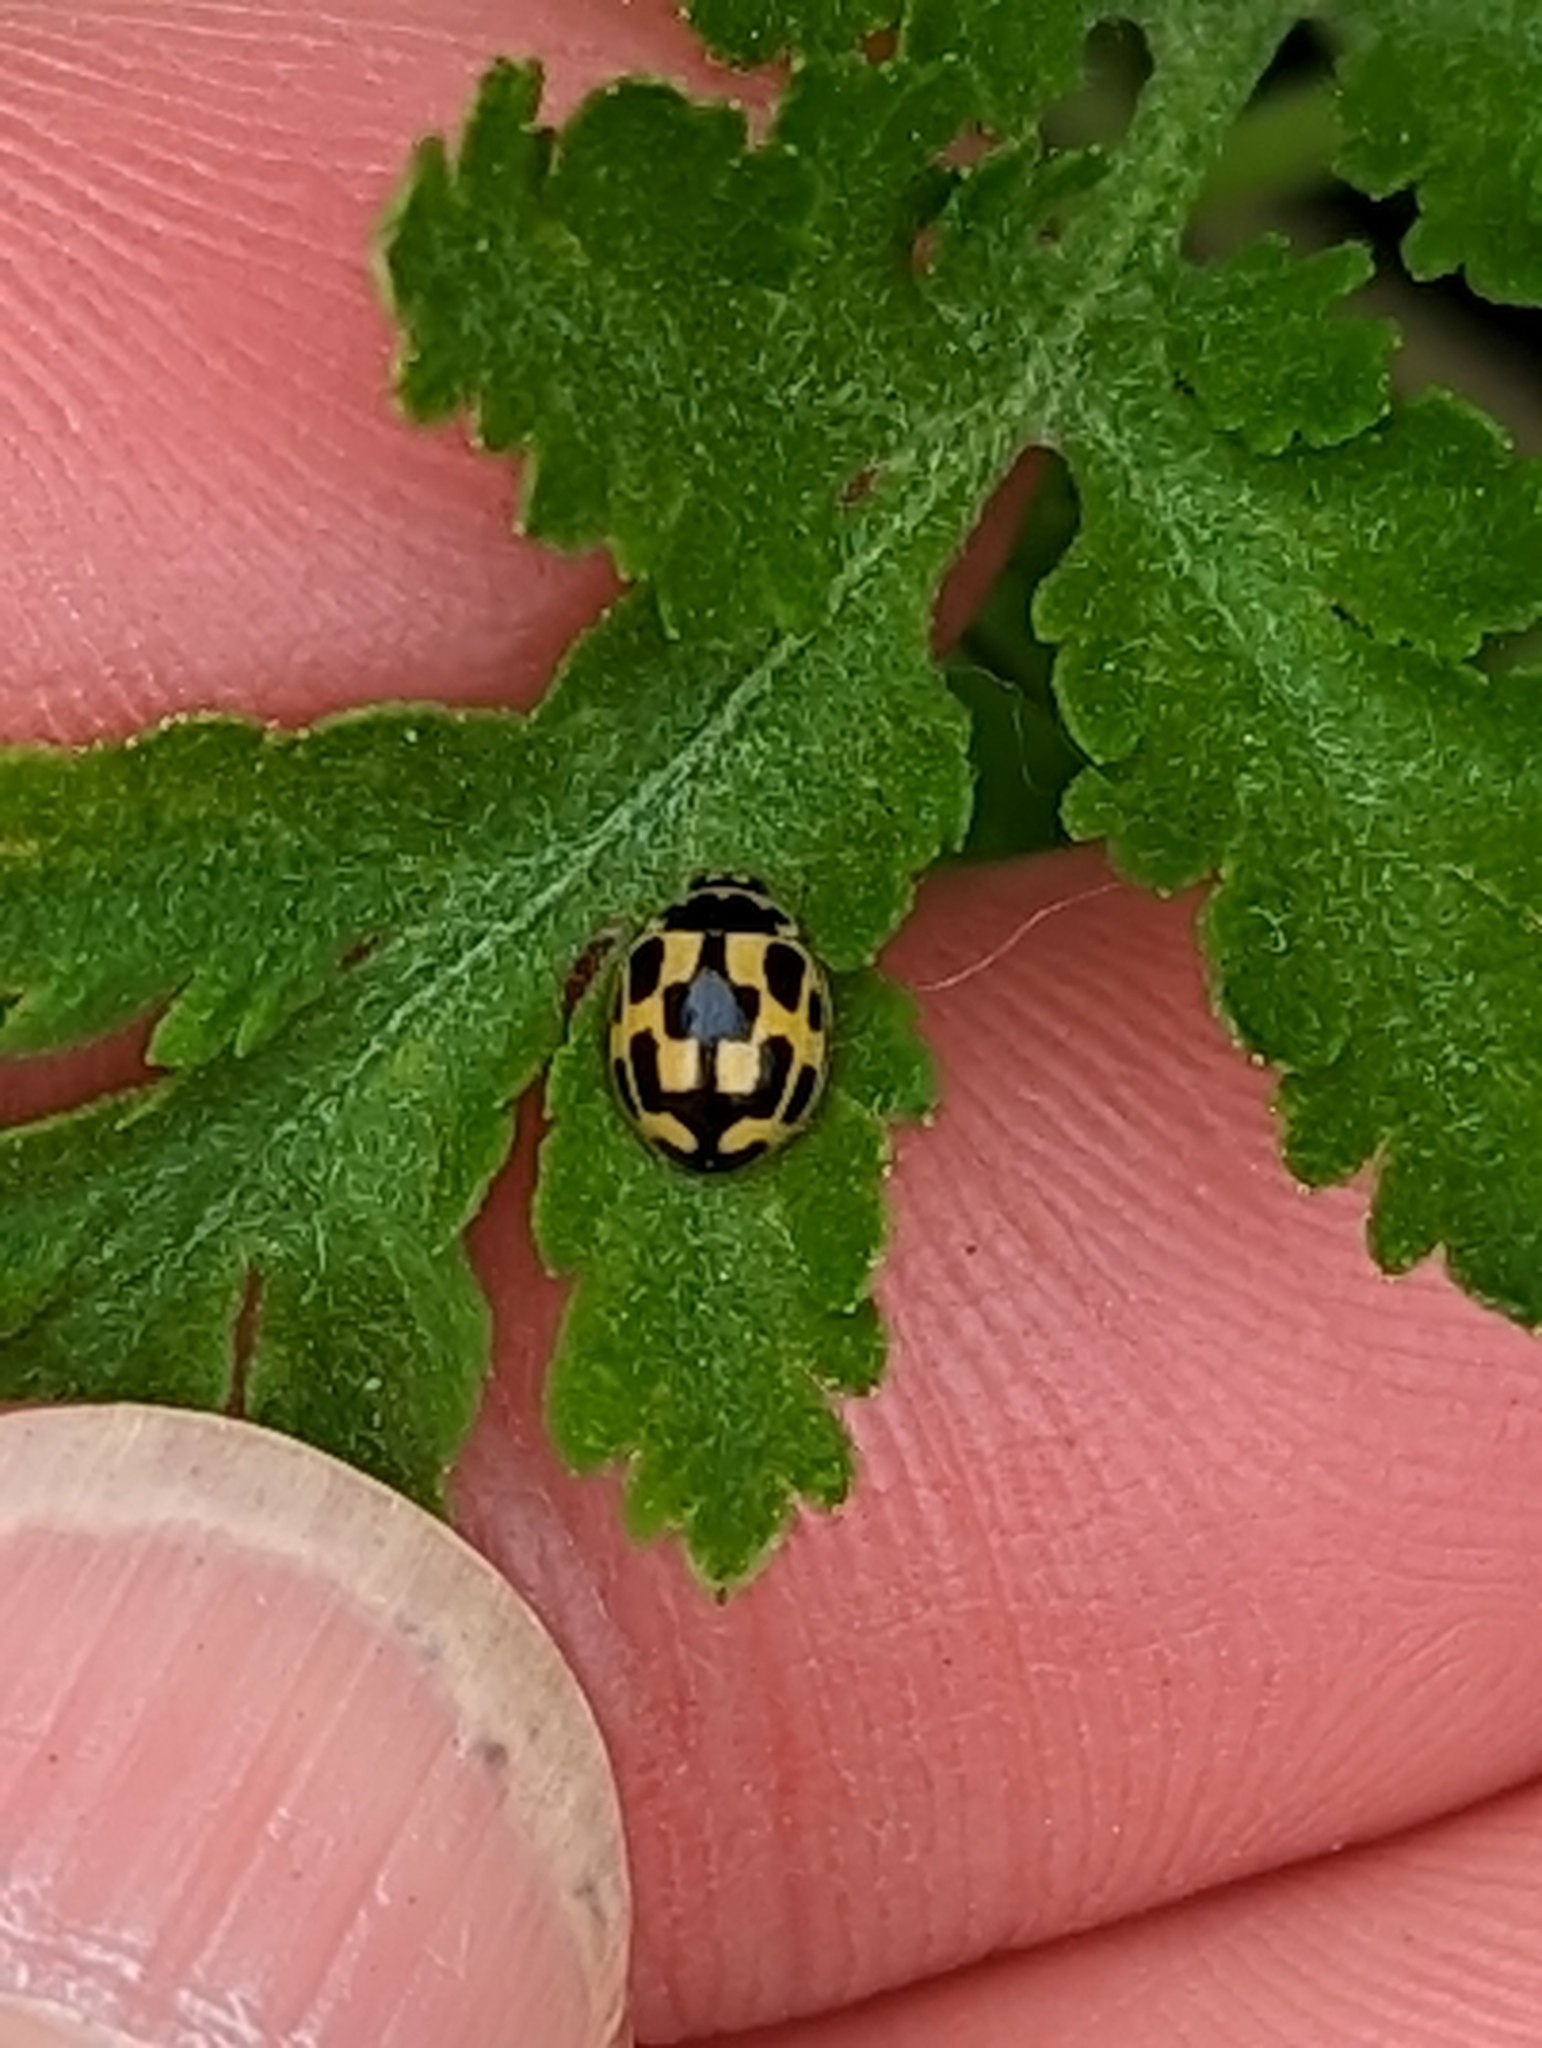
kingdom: Animalia
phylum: Arthropoda
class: Insecta
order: Coleoptera
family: Coccinellidae
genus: Propylaea
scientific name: Propylaea quatuordecimpunctata
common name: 14-spotted ladybird beetle
